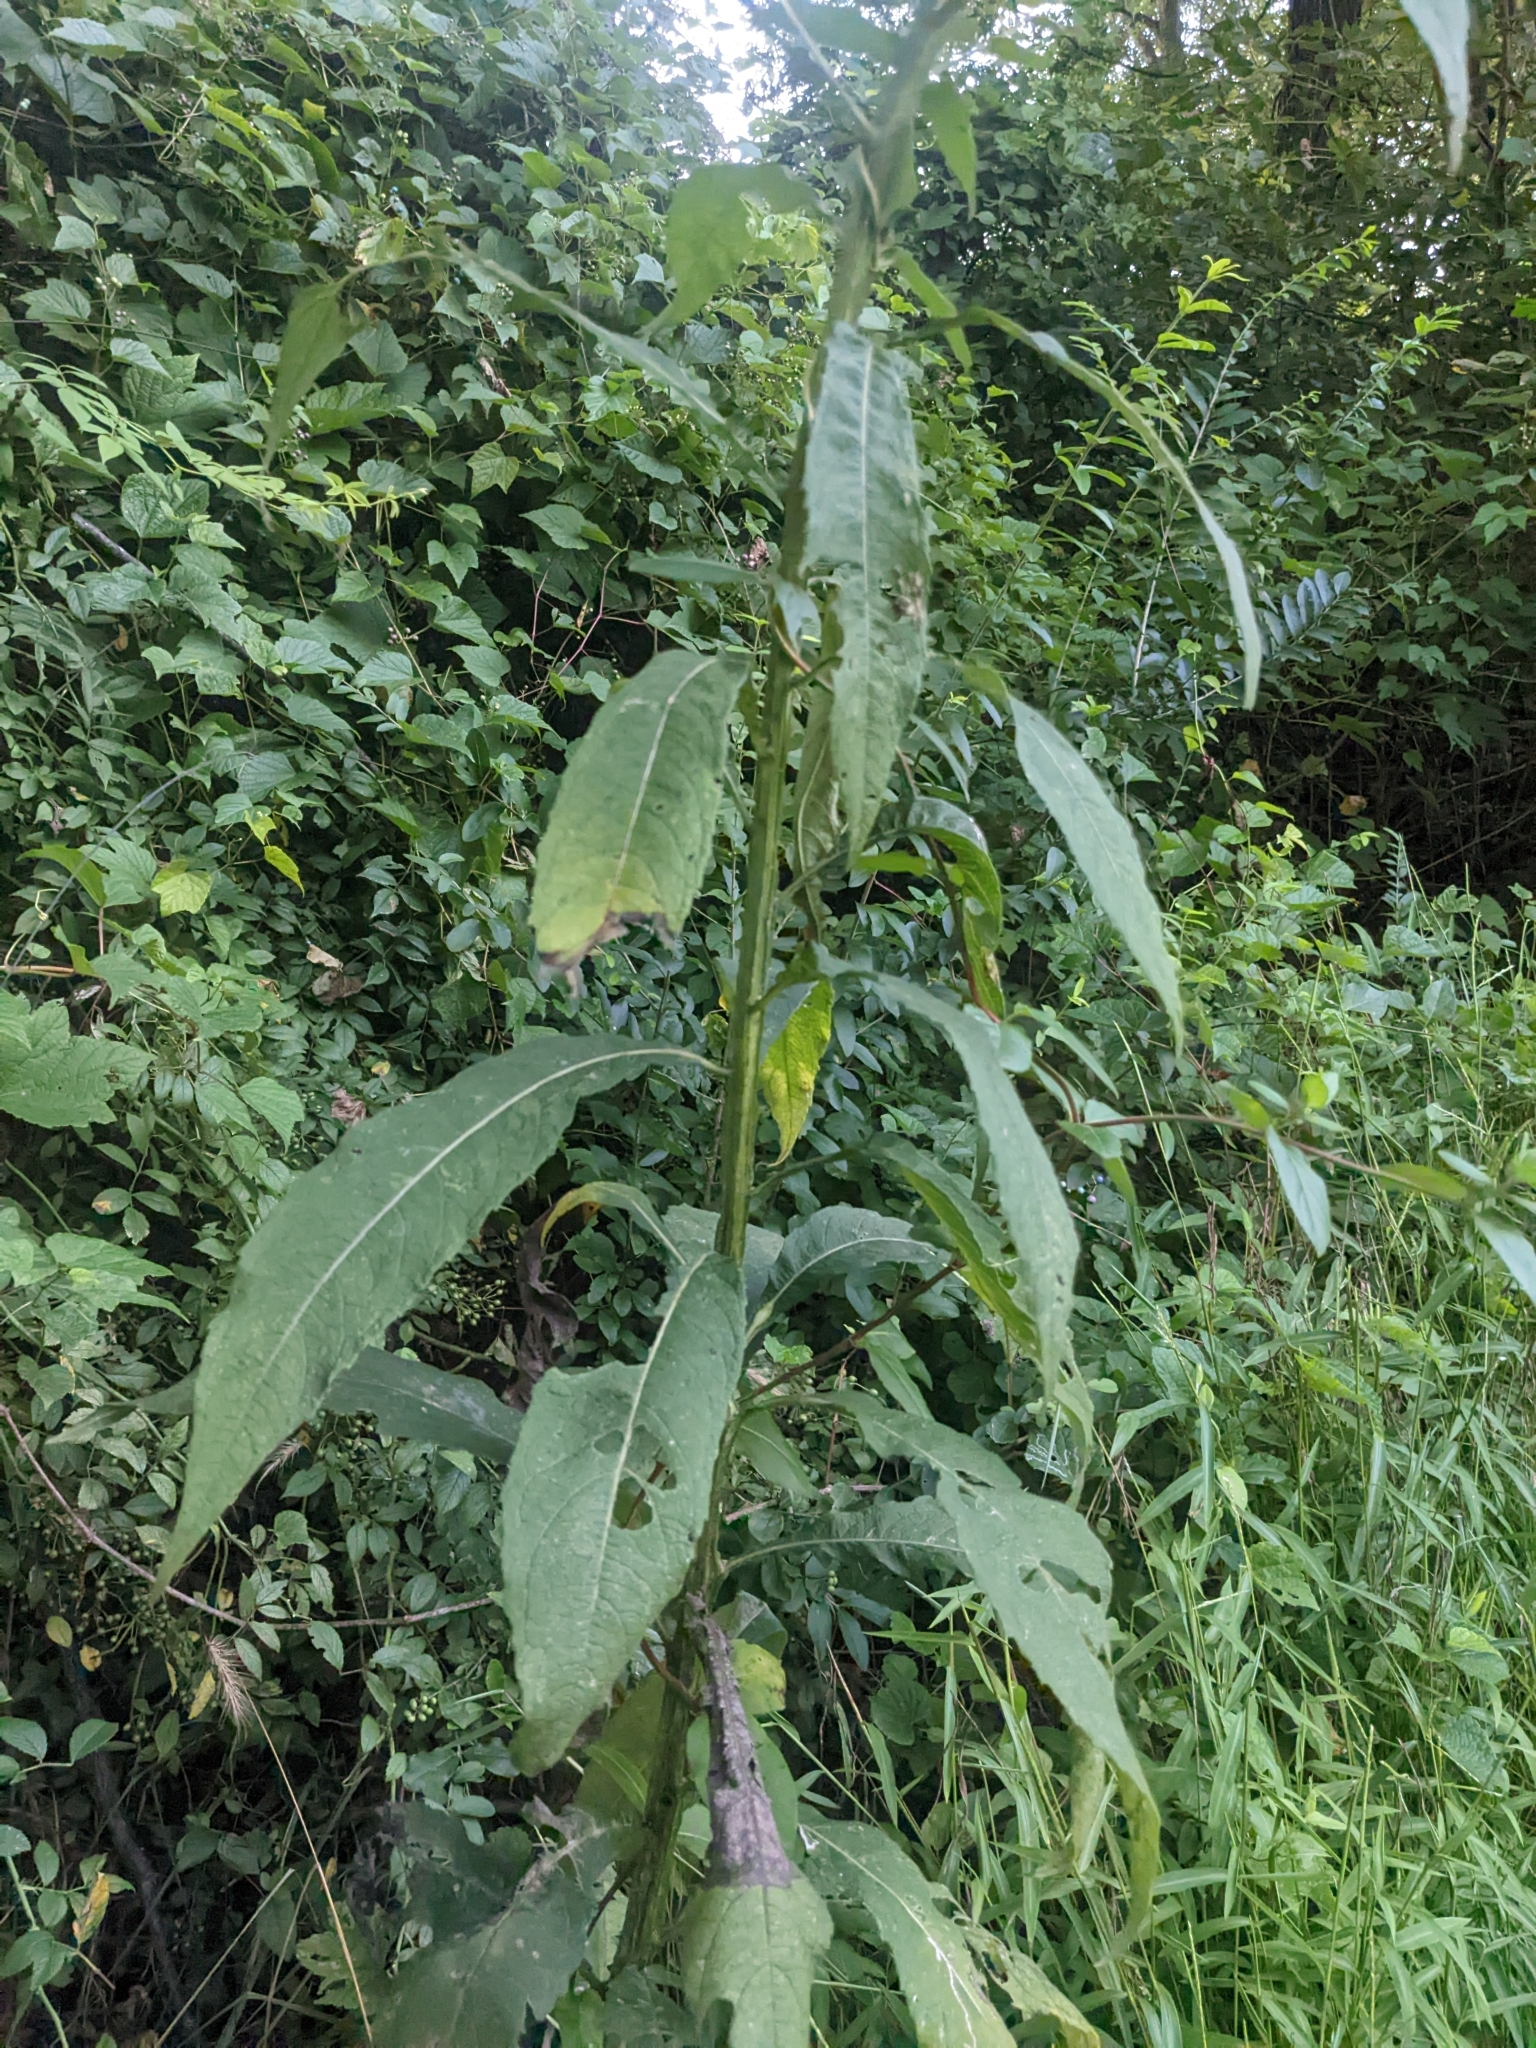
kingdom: Plantae
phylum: Tracheophyta
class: Magnoliopsida
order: Asterales
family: Asteraceae
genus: Verbesina
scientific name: Verbesina alternifolia
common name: Wingstem
